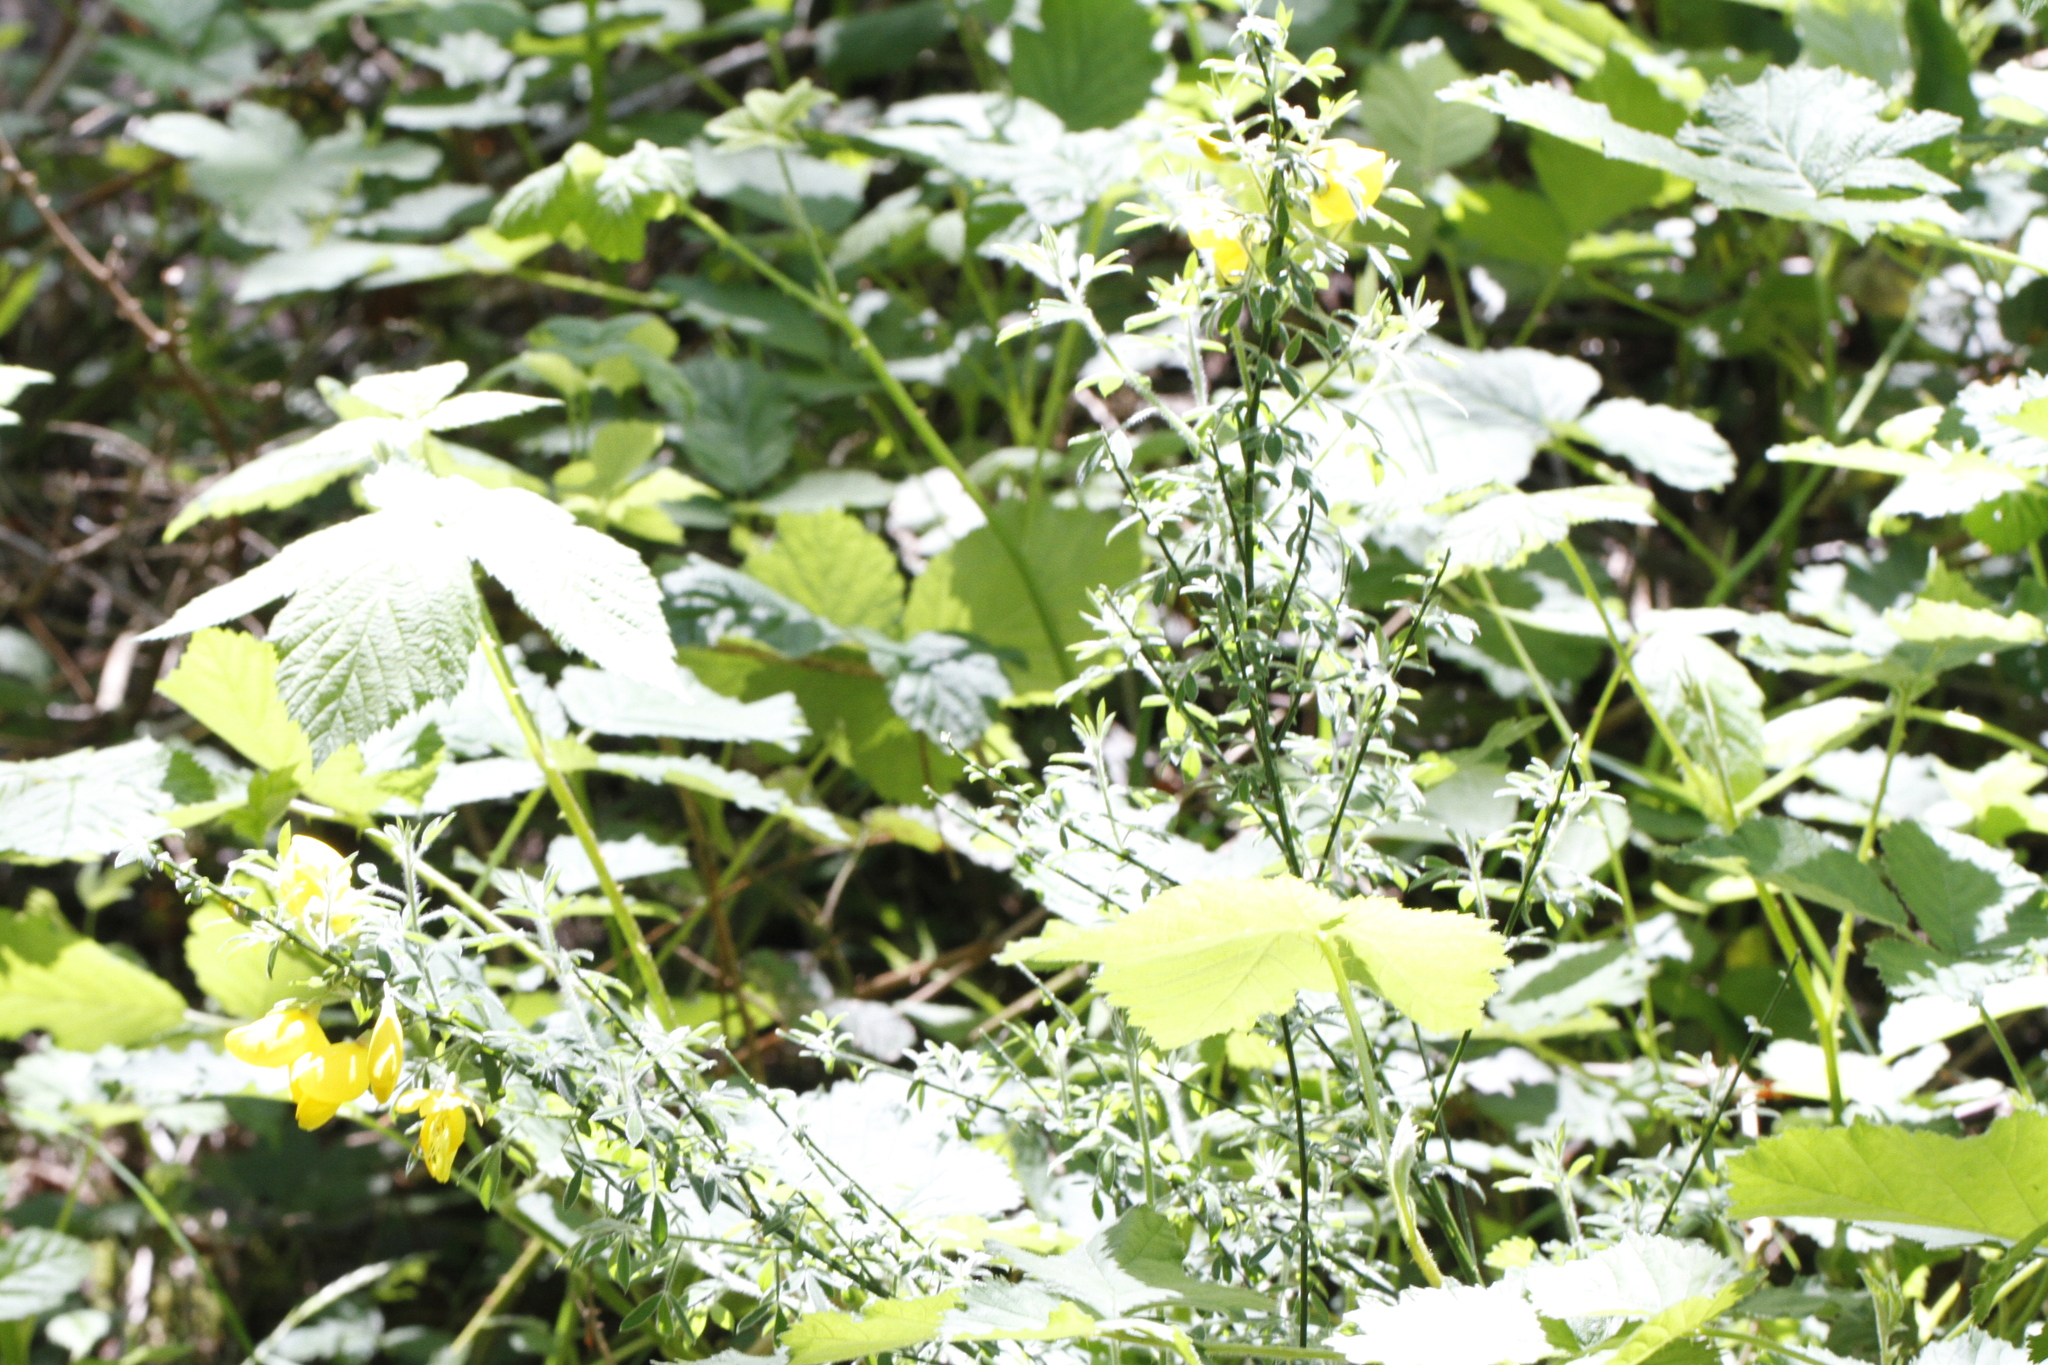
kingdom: Plantae
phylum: Tracheophyta
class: Magnoliopsida
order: Fabales
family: Fabaceae
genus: Cytisus
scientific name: Cytisus scoparius
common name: Scotch broom
